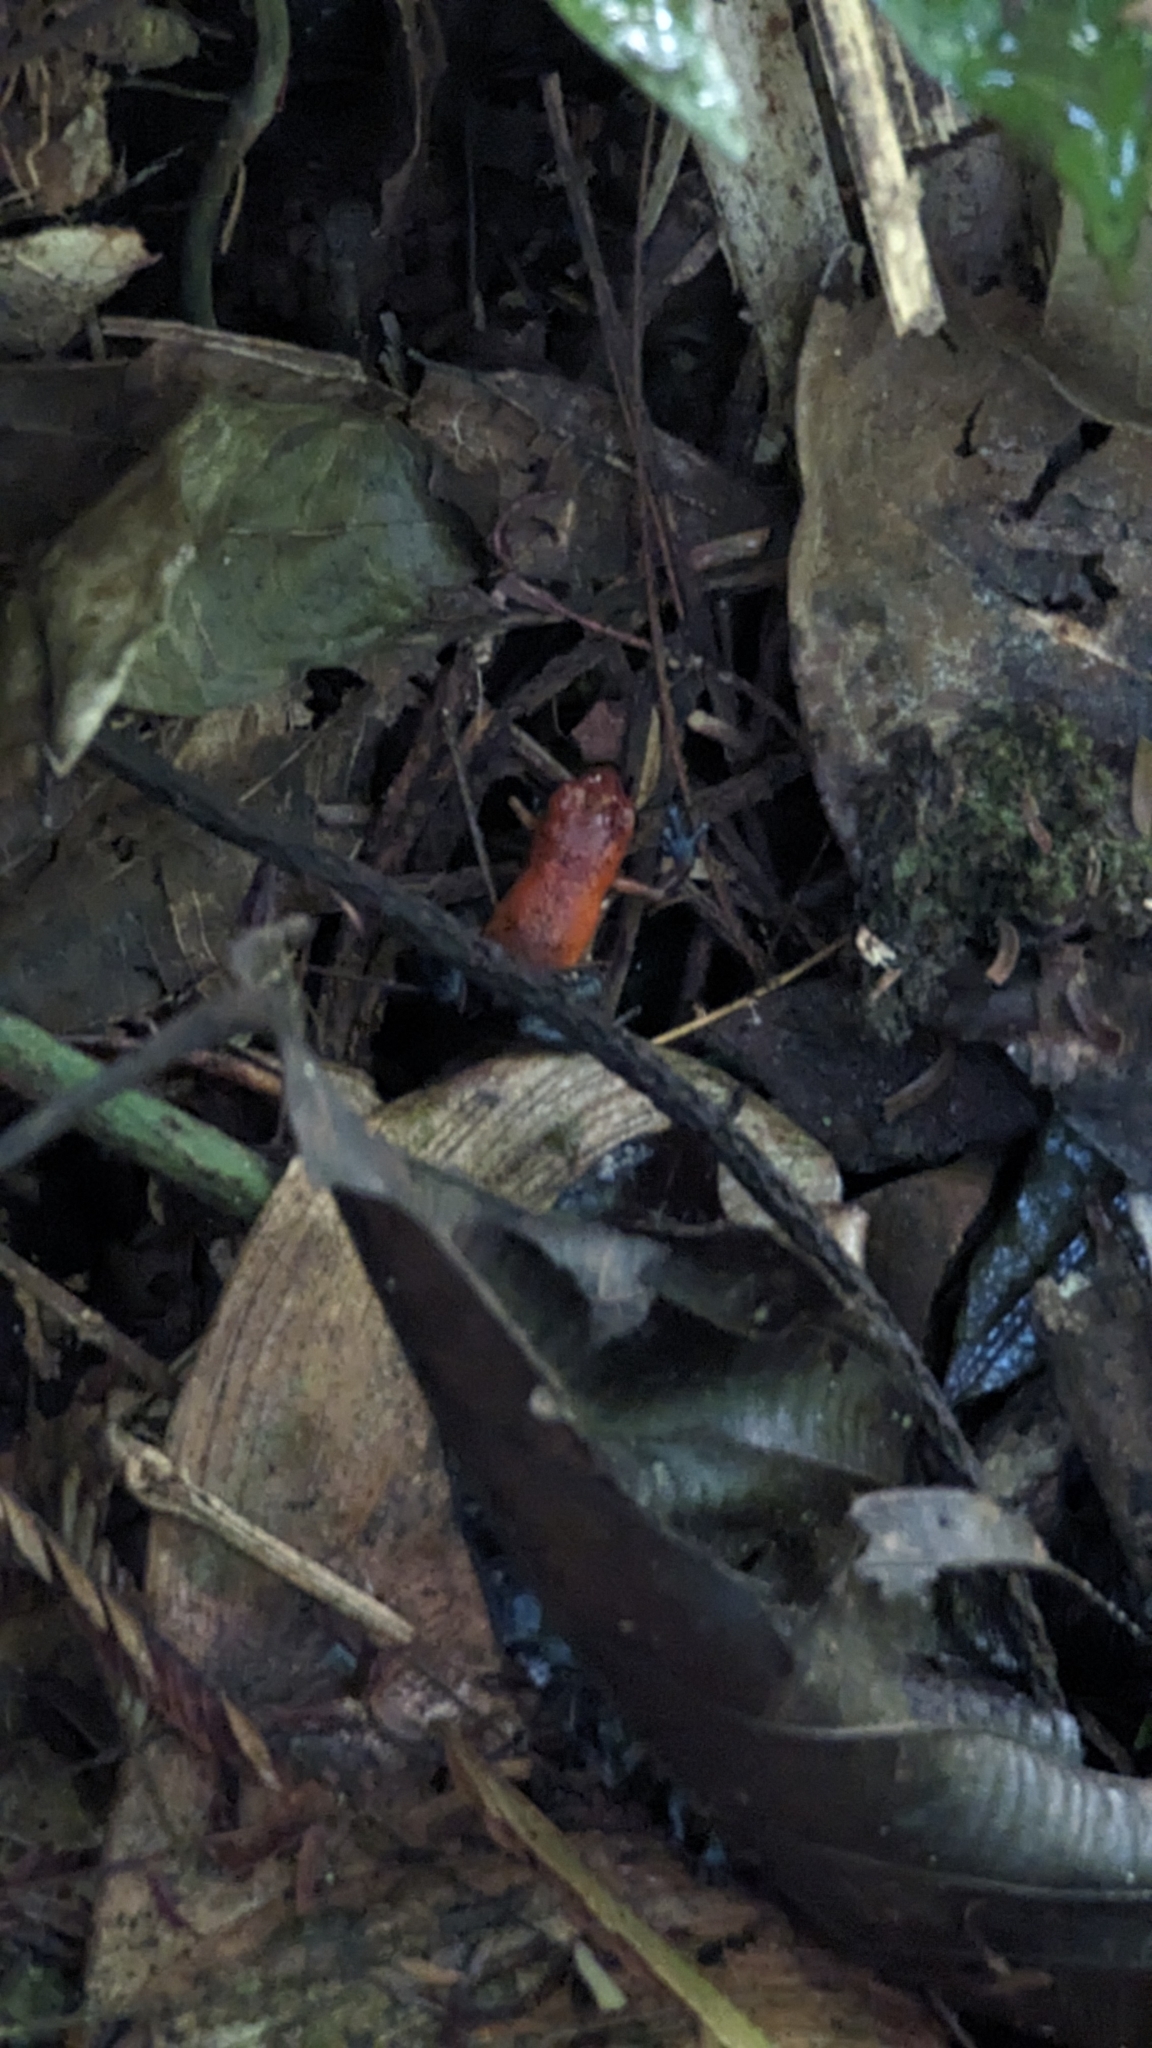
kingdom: Animalia
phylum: Chordata
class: Amphibia
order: Anura
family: Dendrobatidae
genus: Oophaga
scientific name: Oophaga pumilio
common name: Flaming poison frog
